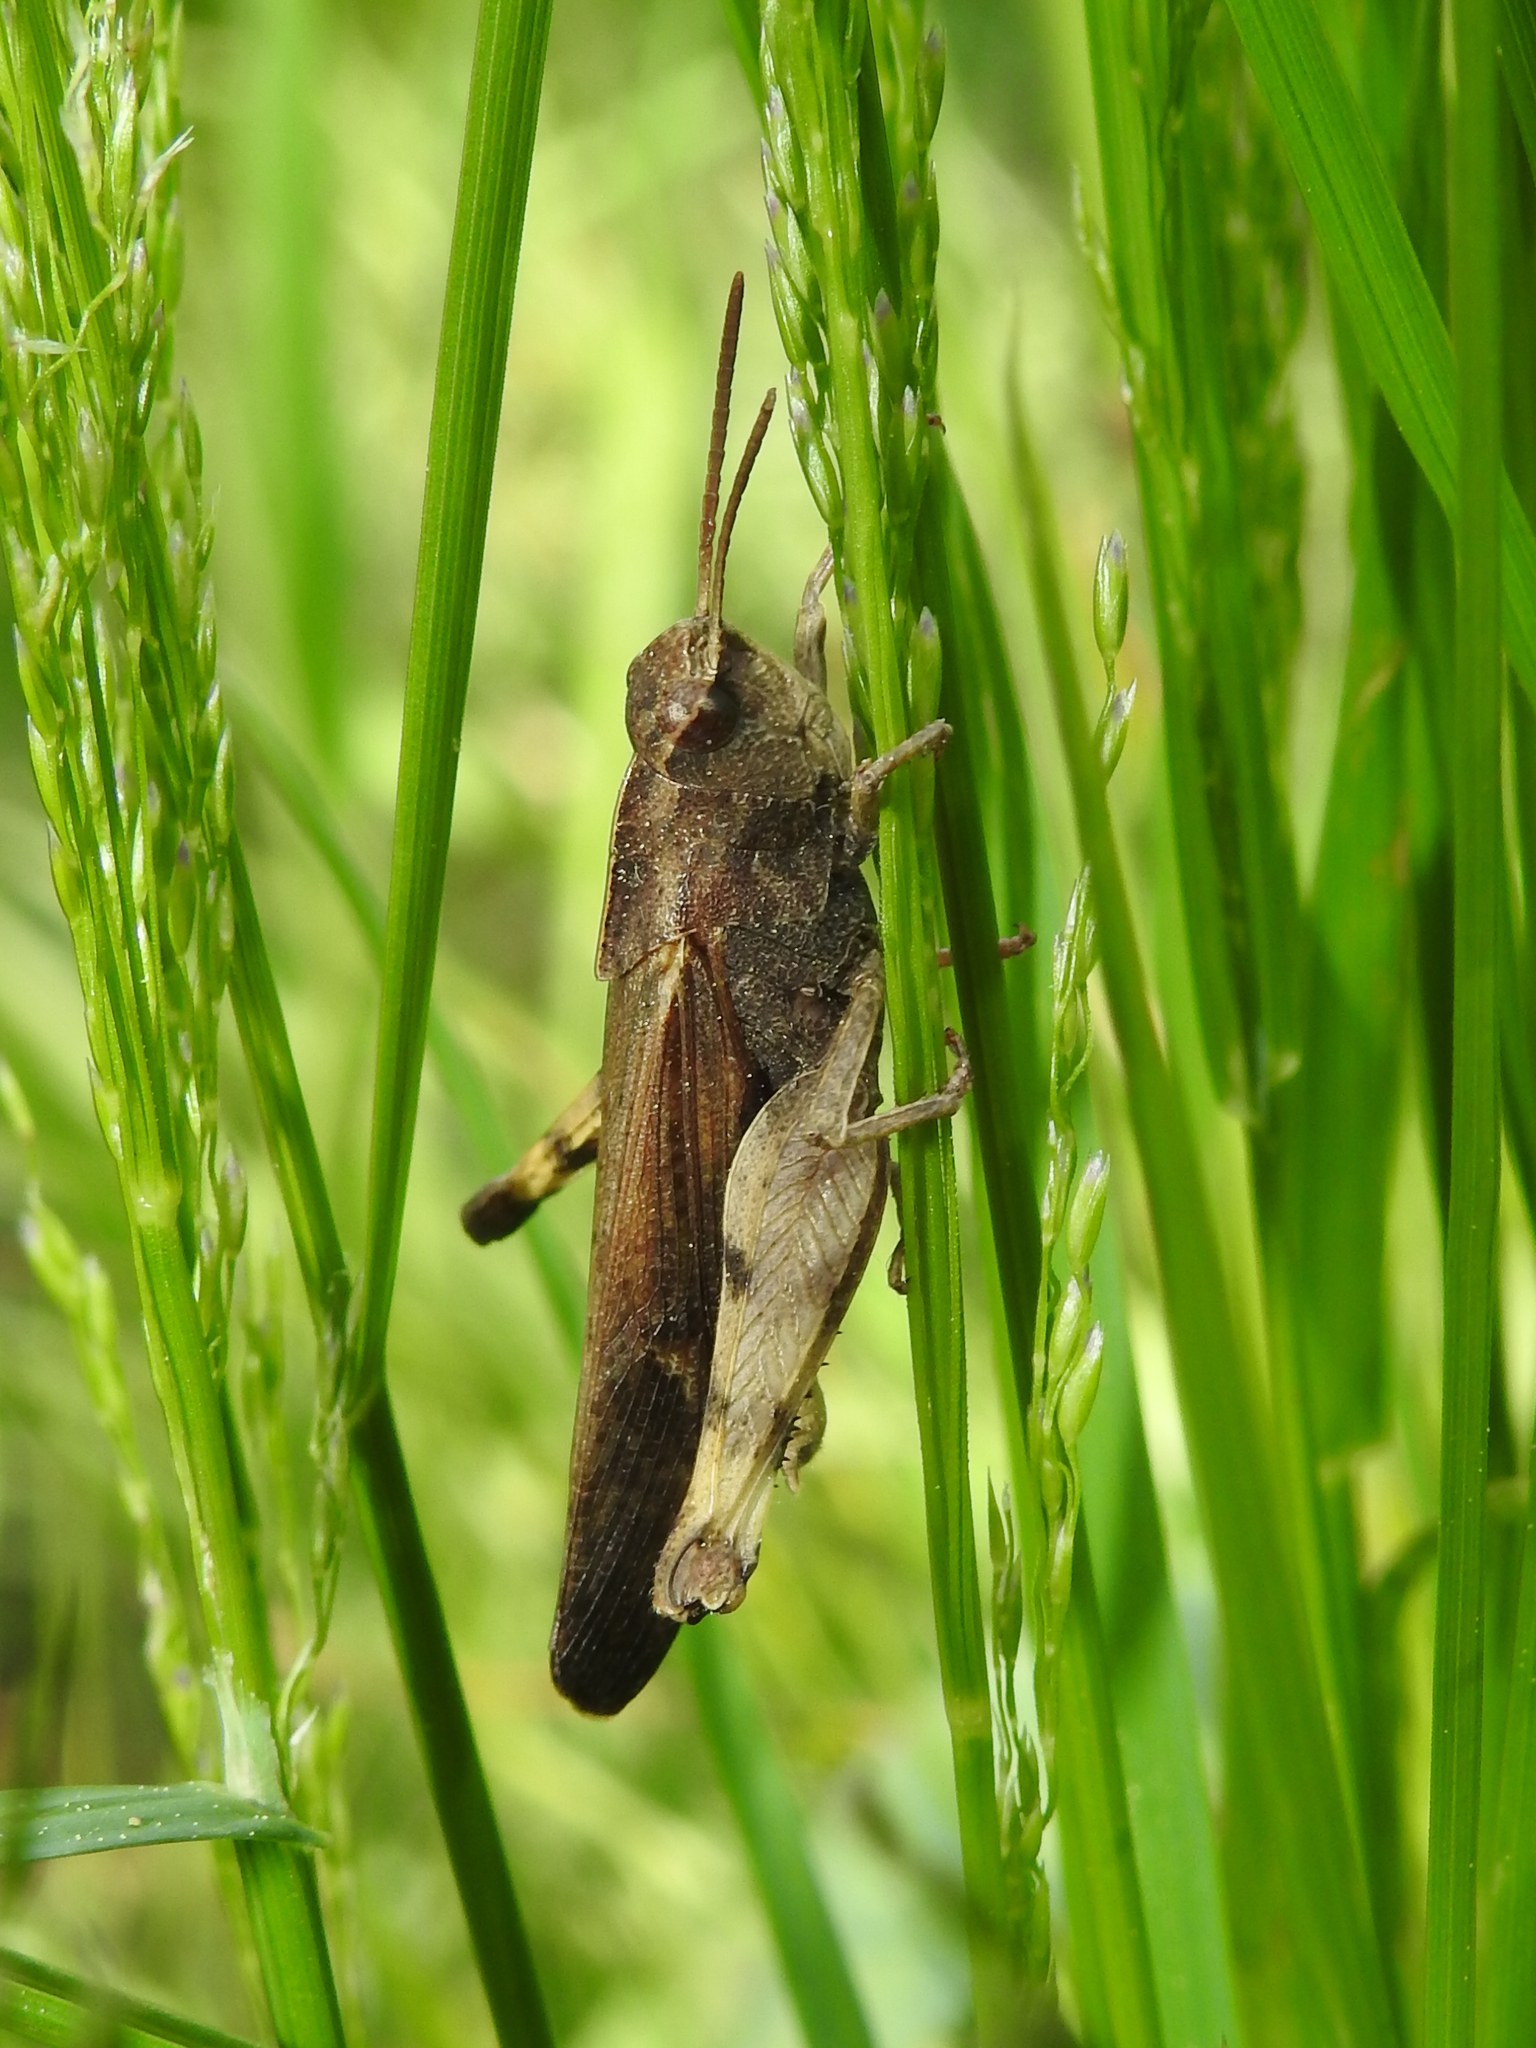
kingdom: Animalia
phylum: Arthropoda
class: Insecta
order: Orthoptera
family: Acrididae
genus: Chortophaga
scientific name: Chortophaga viridifasciata
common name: Green-striped grasshopper
